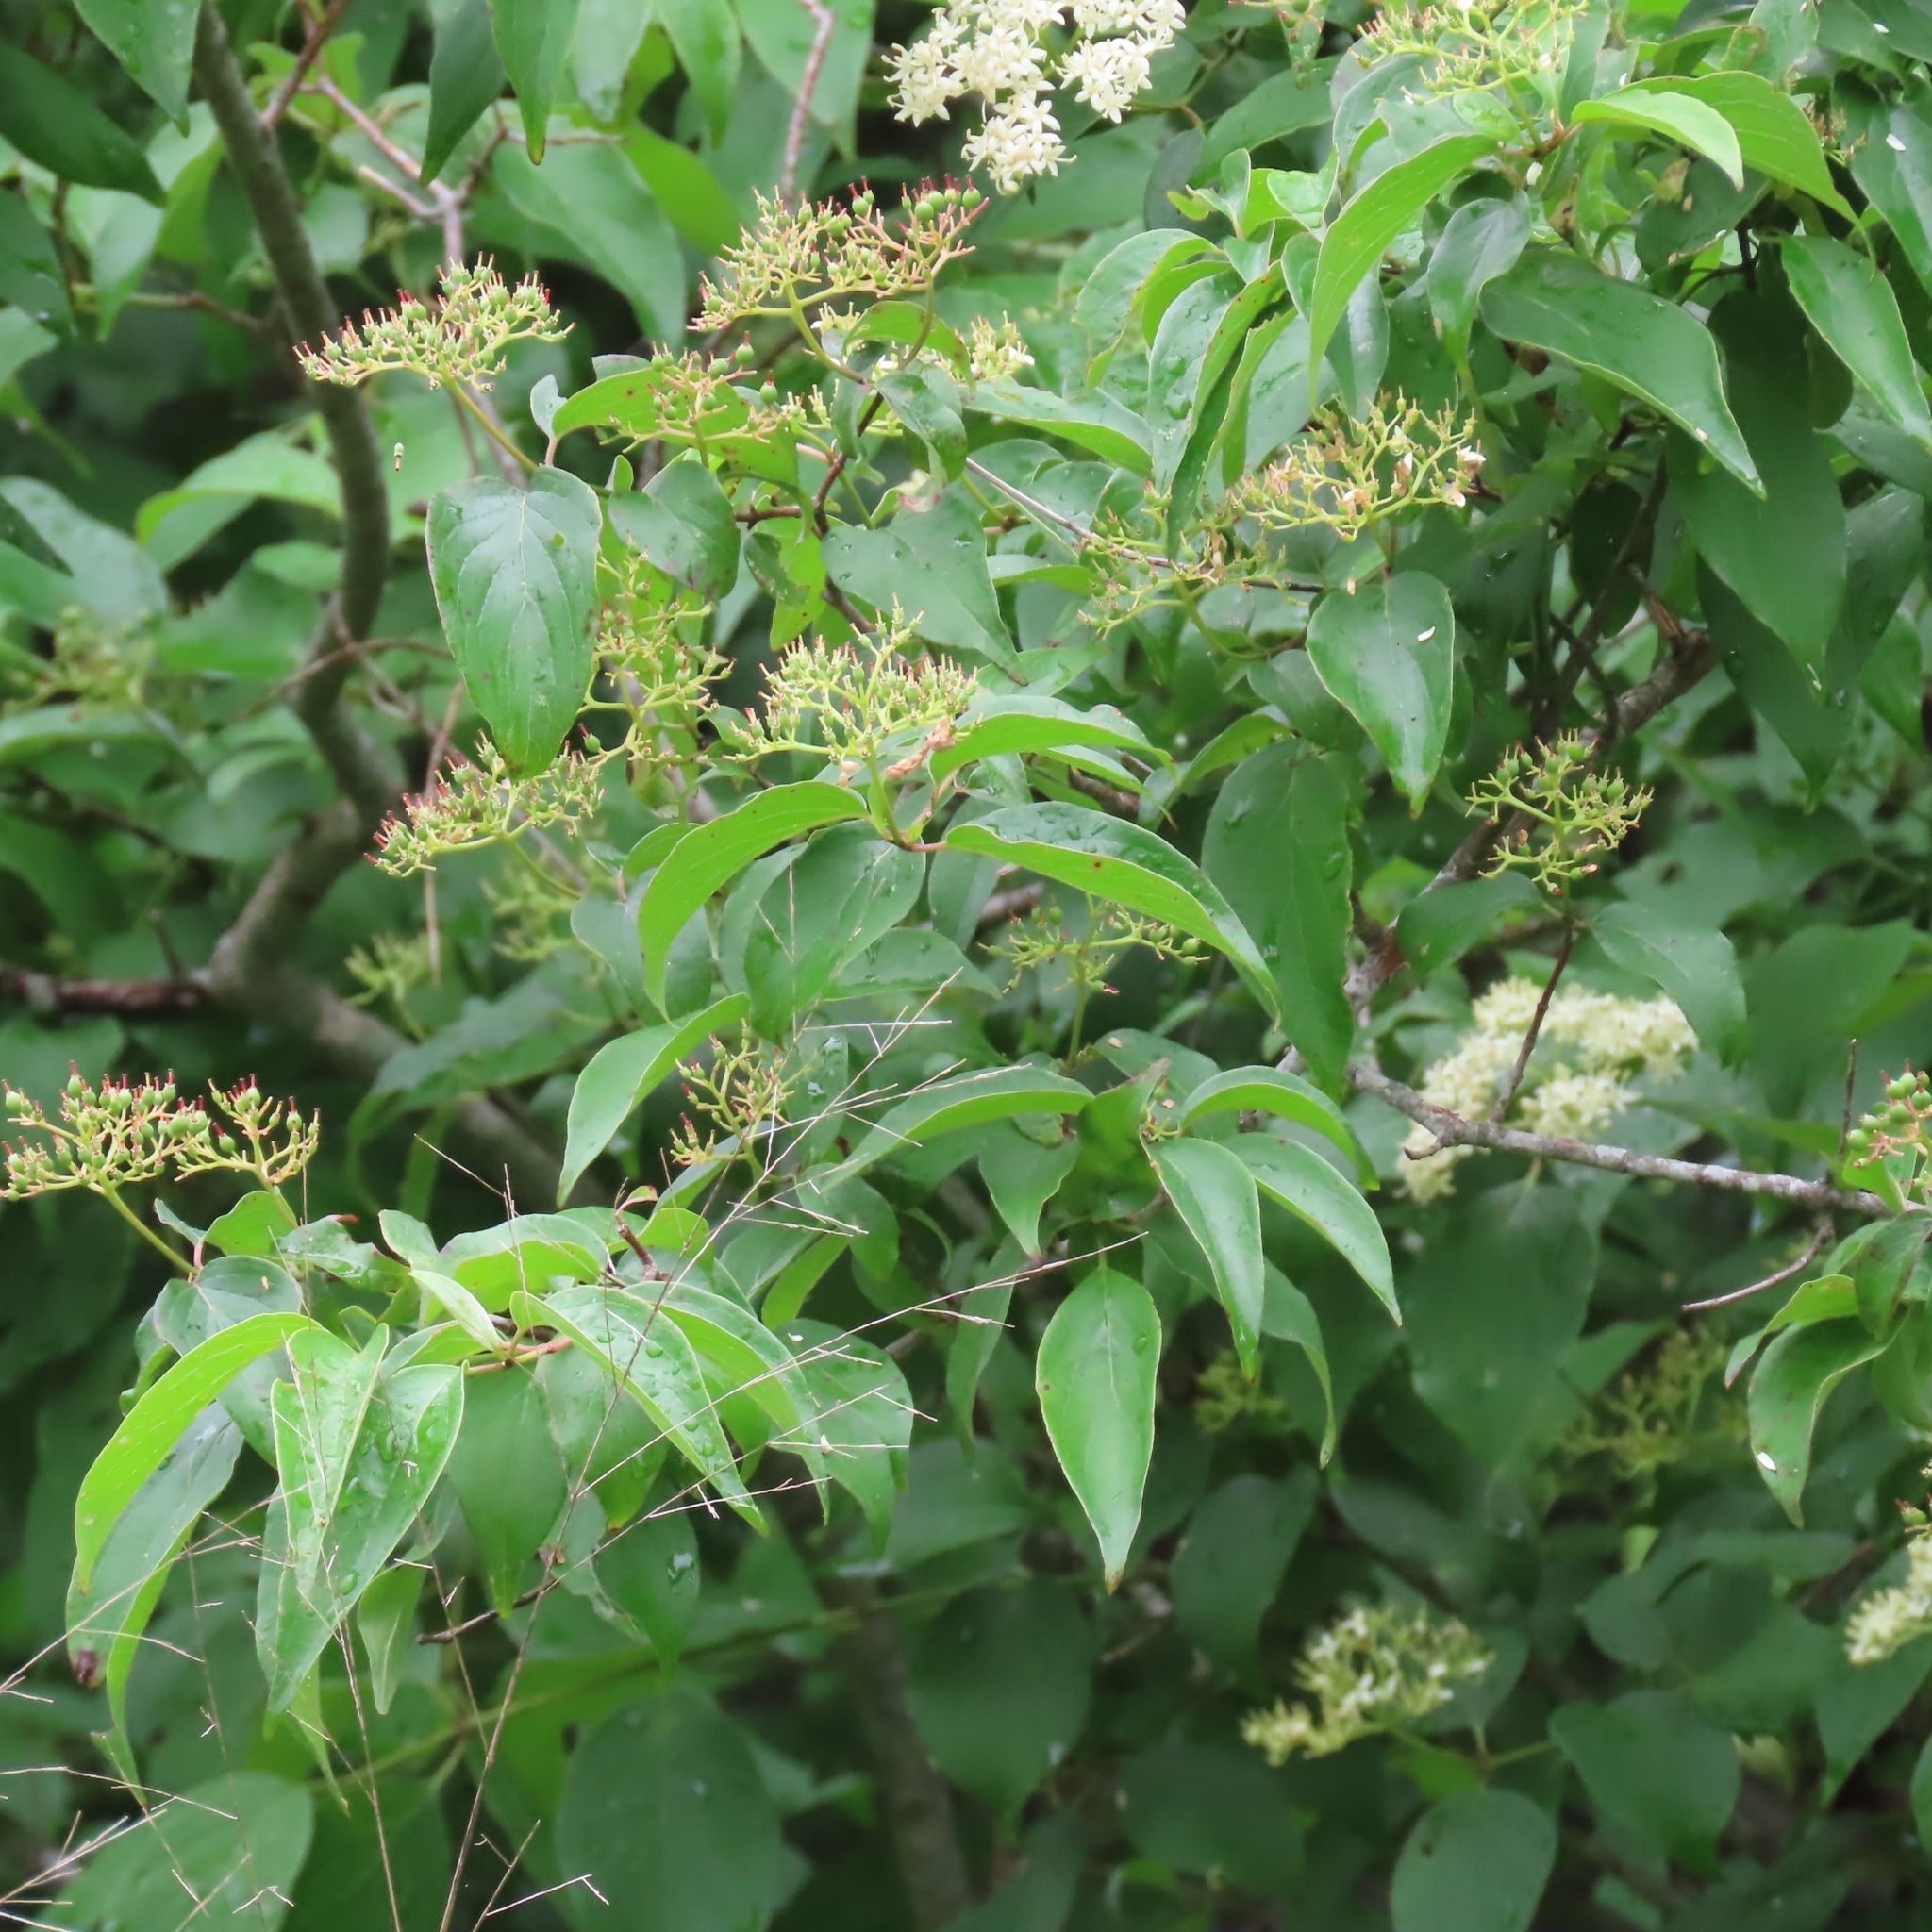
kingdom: Plantae
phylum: Tracheophyta
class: Magnoliopsida
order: Cornales
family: Cornaceae
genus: Cornus
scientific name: Cornus drummondii
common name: Rough-leaf dogwood
